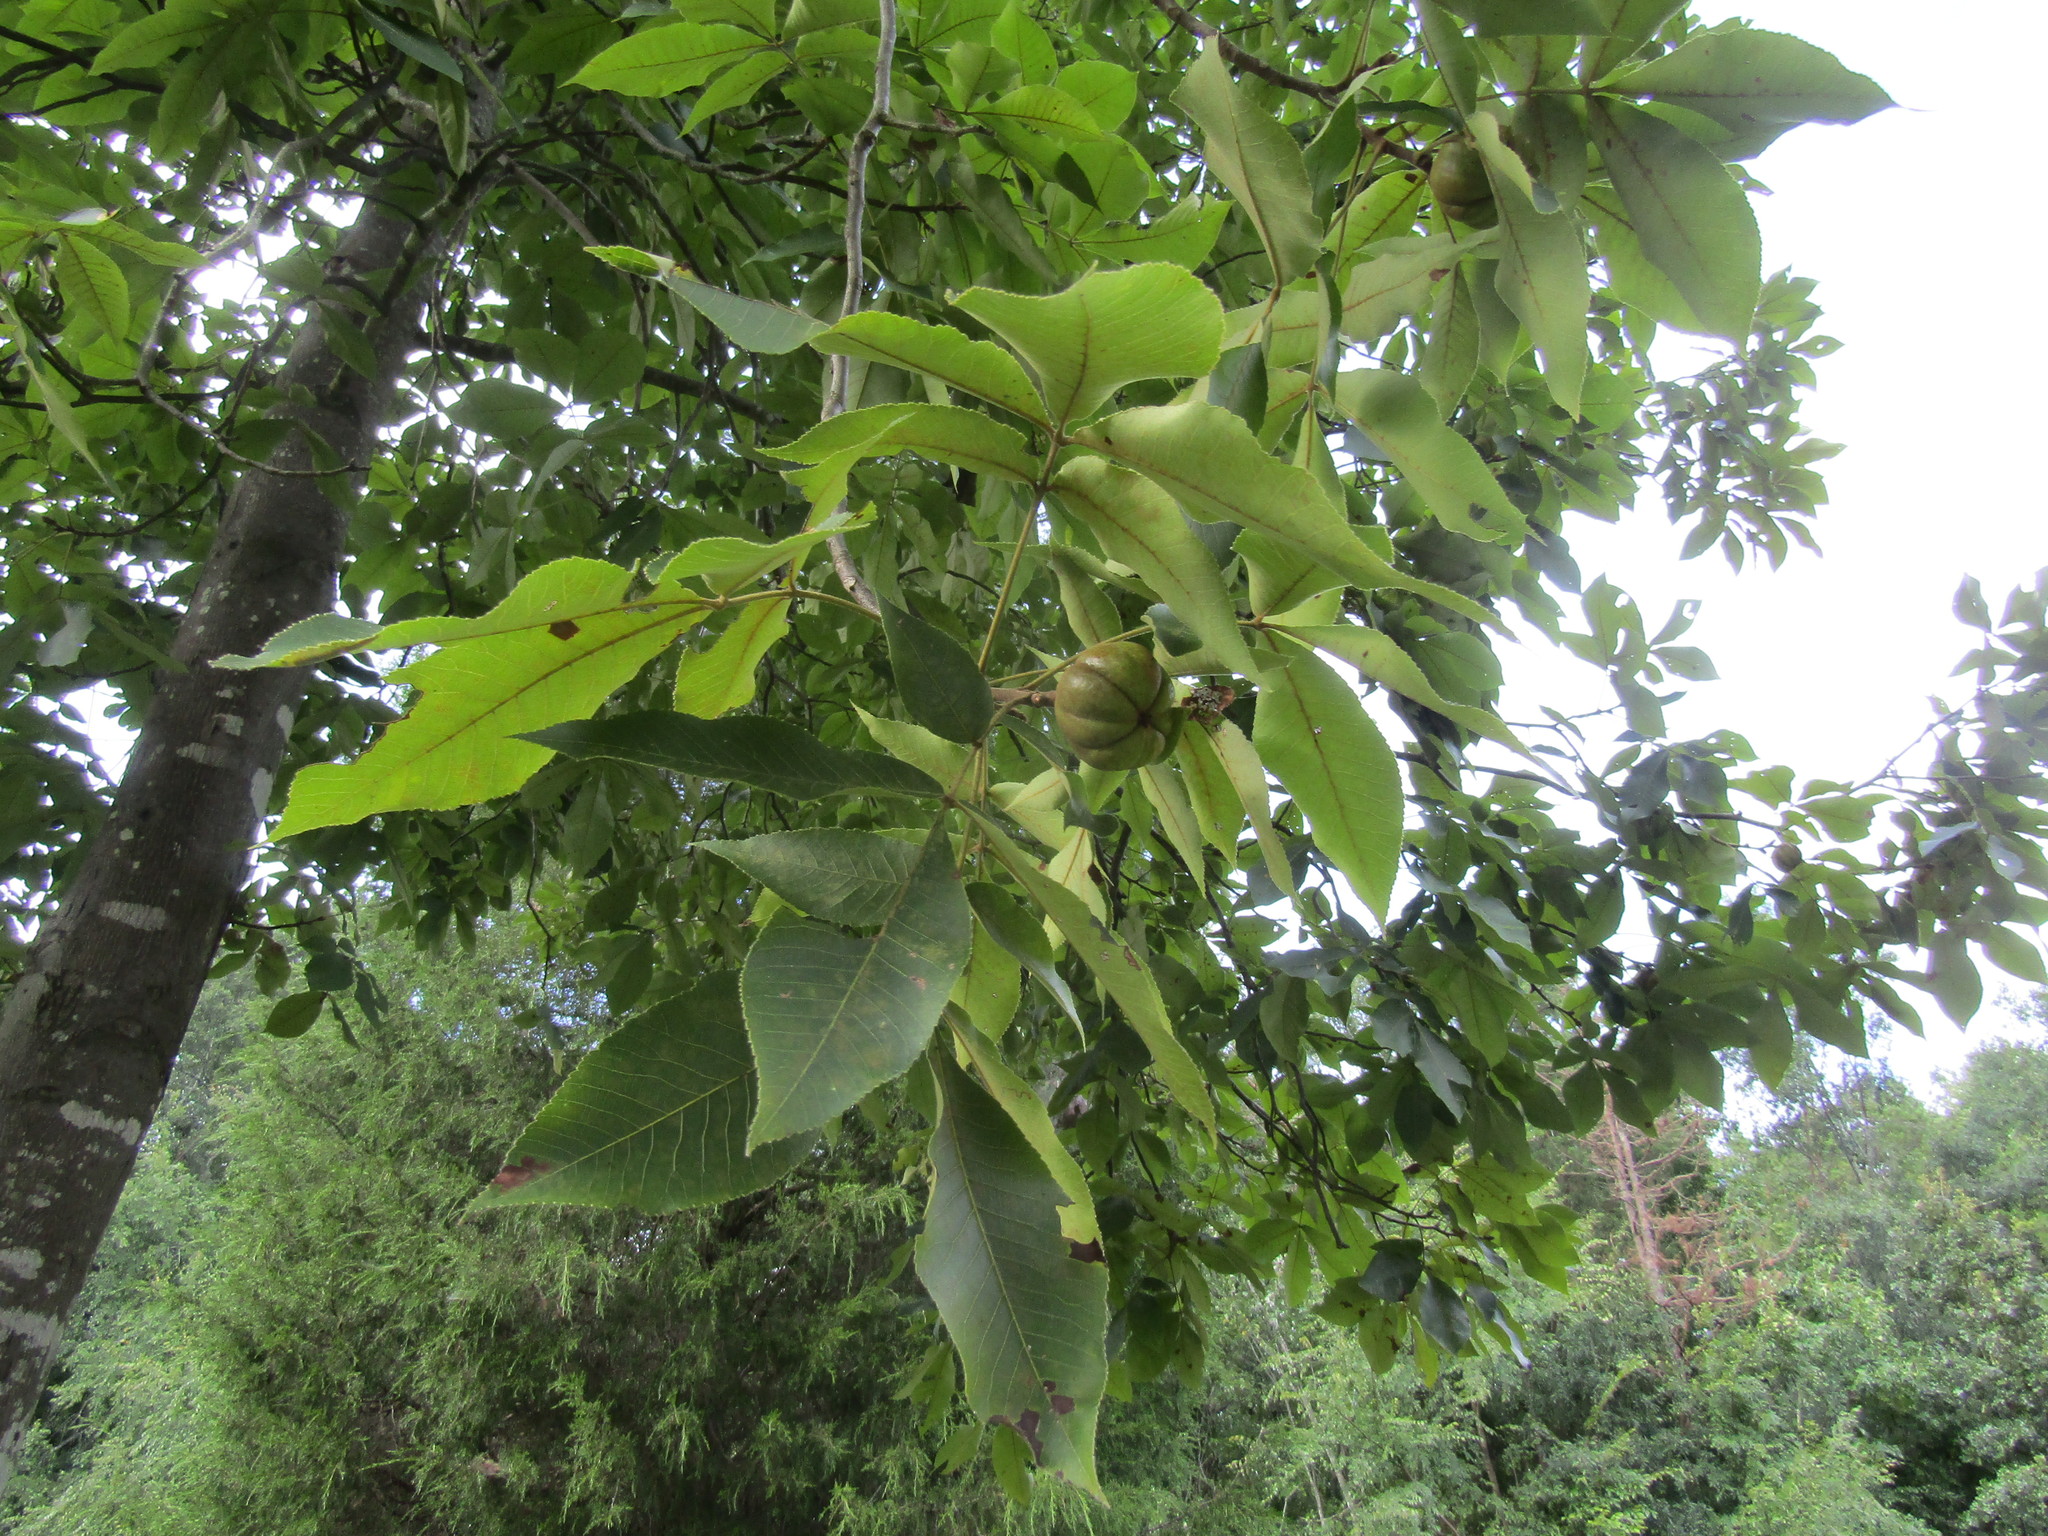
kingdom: Plantae
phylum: Tracheophyta
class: Magnoliopsida
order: Fagales
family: Juglandaceae
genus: Carya
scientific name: Carya ovata
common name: Shagbark hickory
